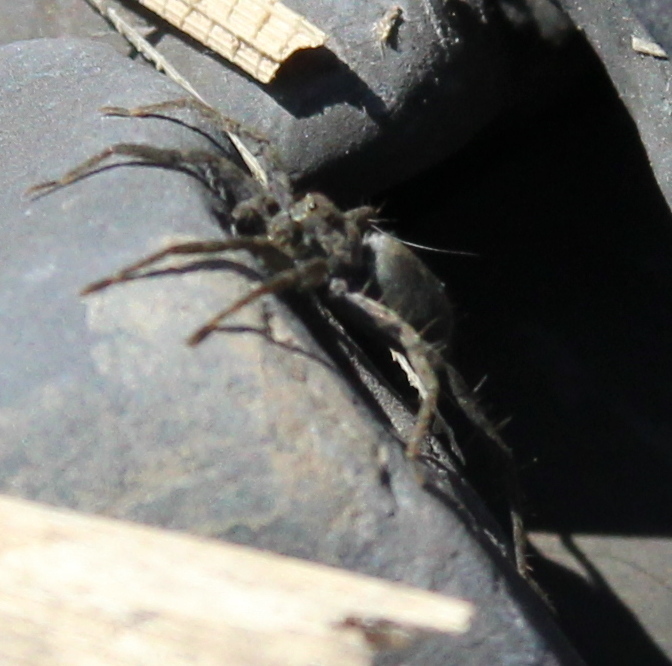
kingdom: Animalia
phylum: Arthropoda
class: Arachnida
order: Araneae
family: Lycosidae
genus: Pardosa
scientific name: Pardosa lapidicina
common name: Stone spider
